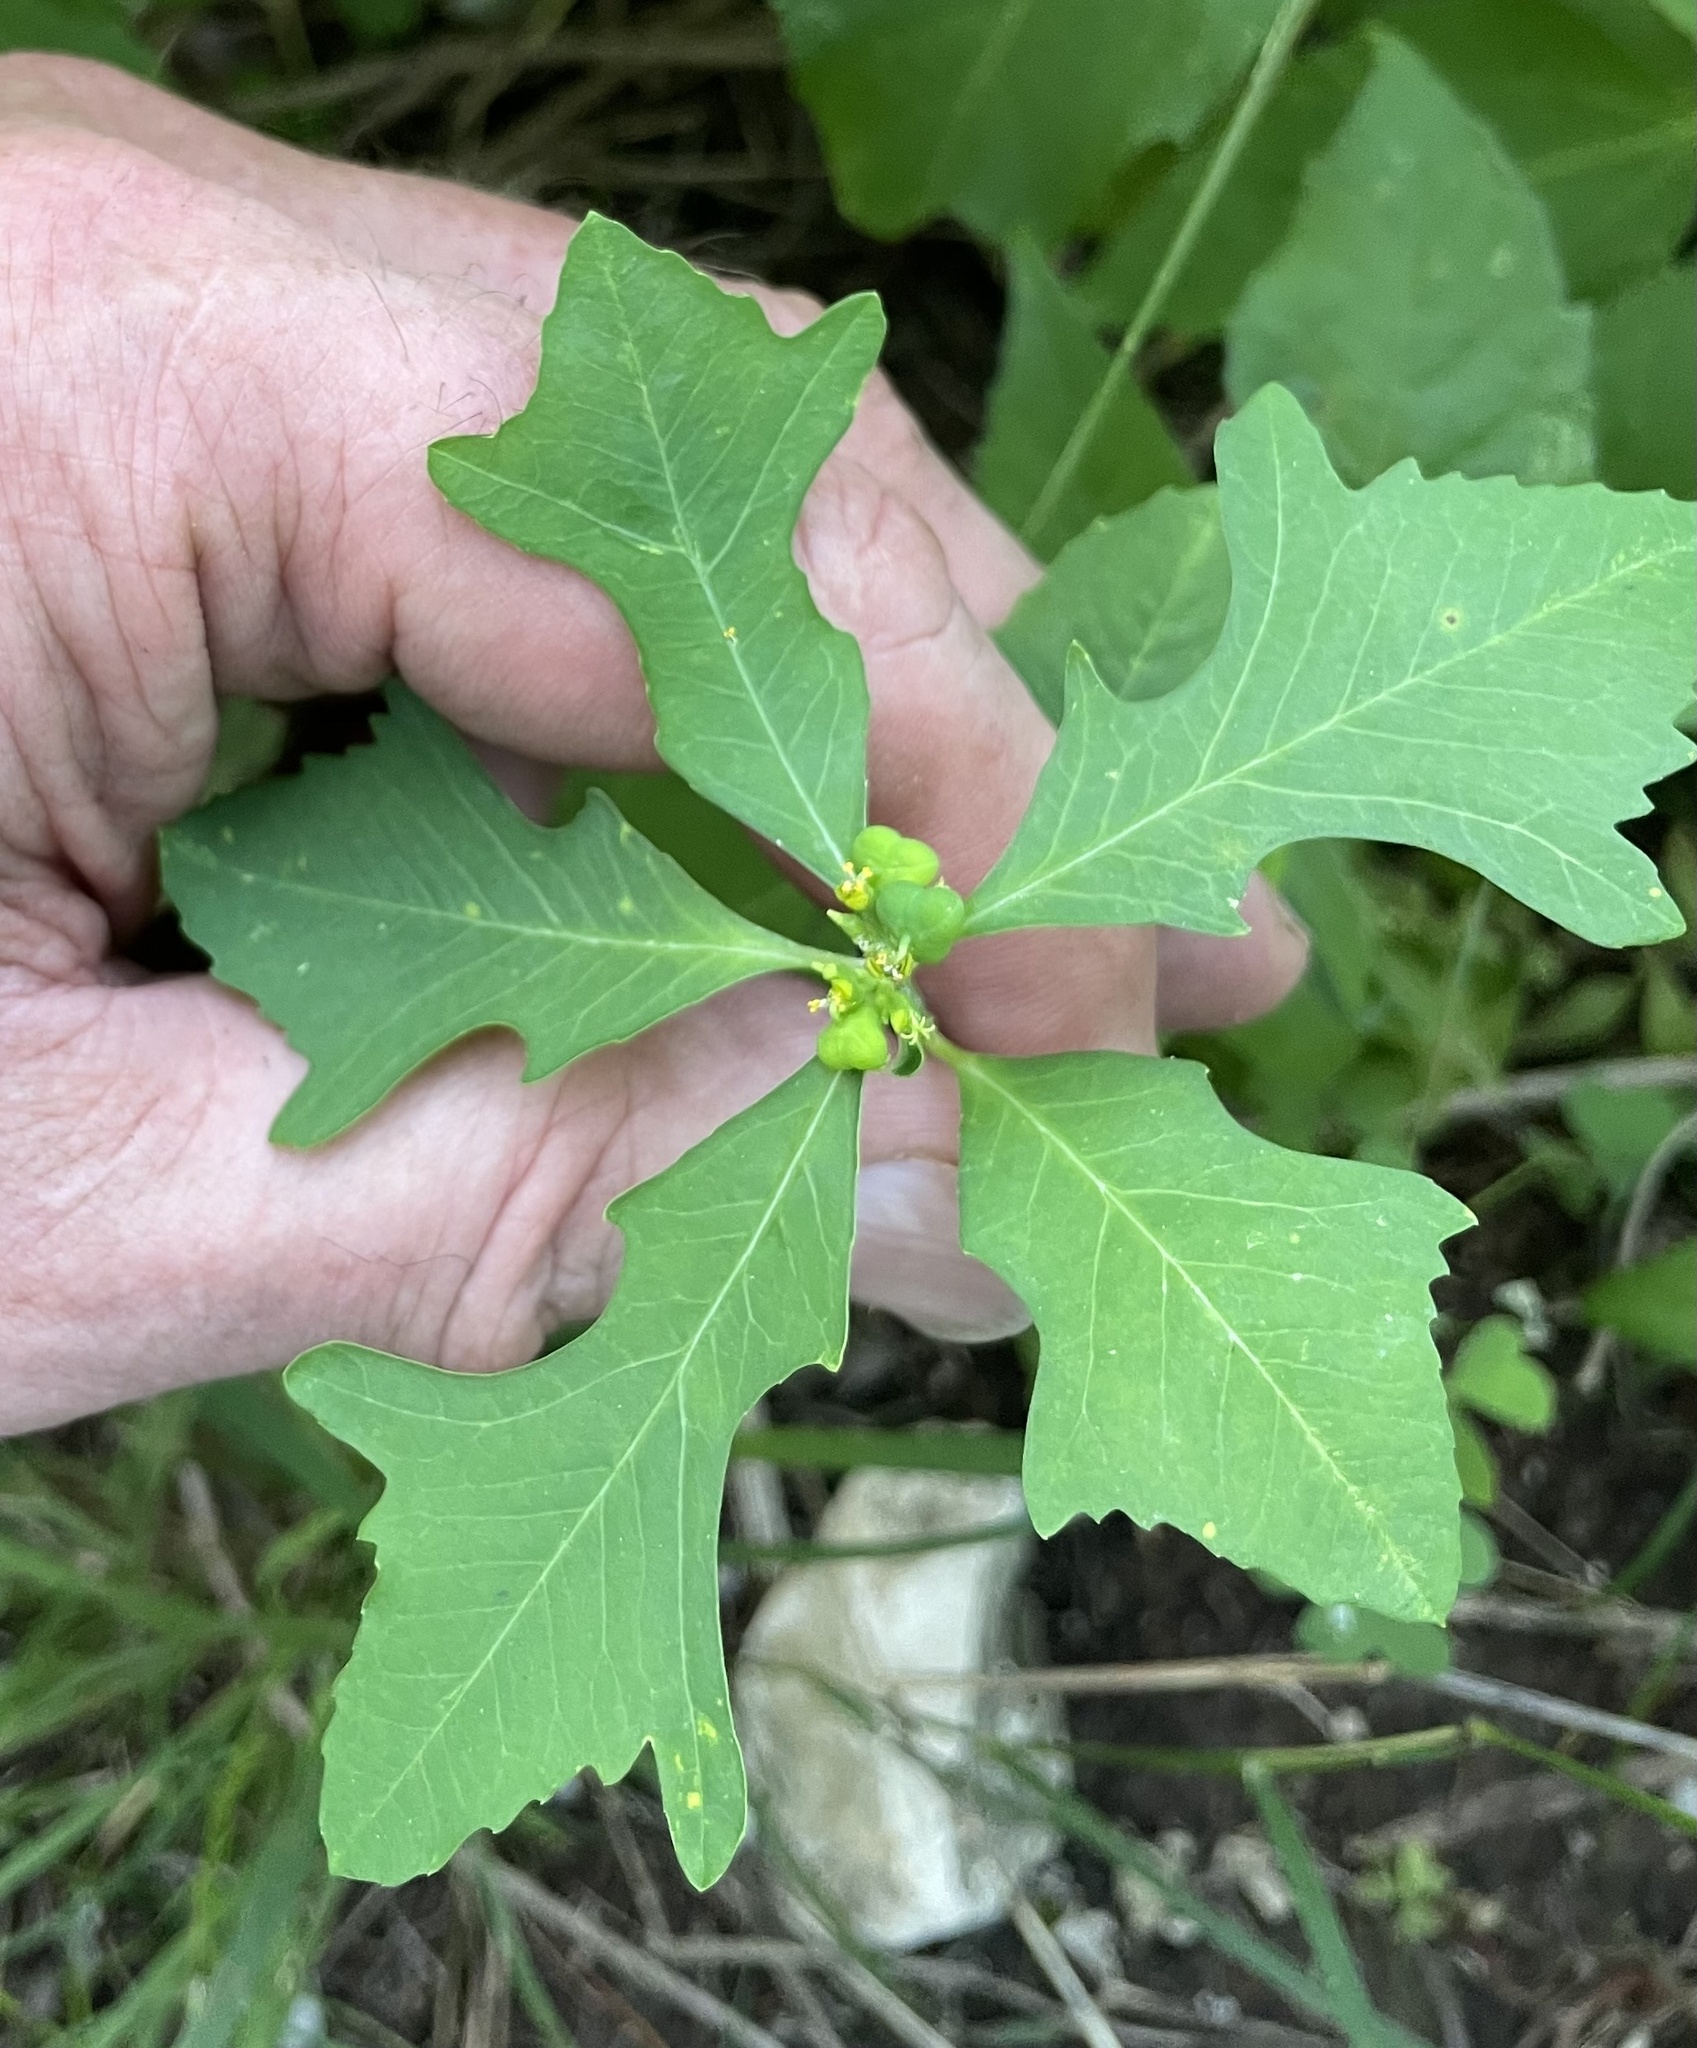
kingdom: Plantae
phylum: Tracheophyta
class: Magnoliopsida
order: Malpighiales
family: Euphorbiaceae
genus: Euphorbia
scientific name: Euphorbia heterophylla
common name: Mexican fireplant
